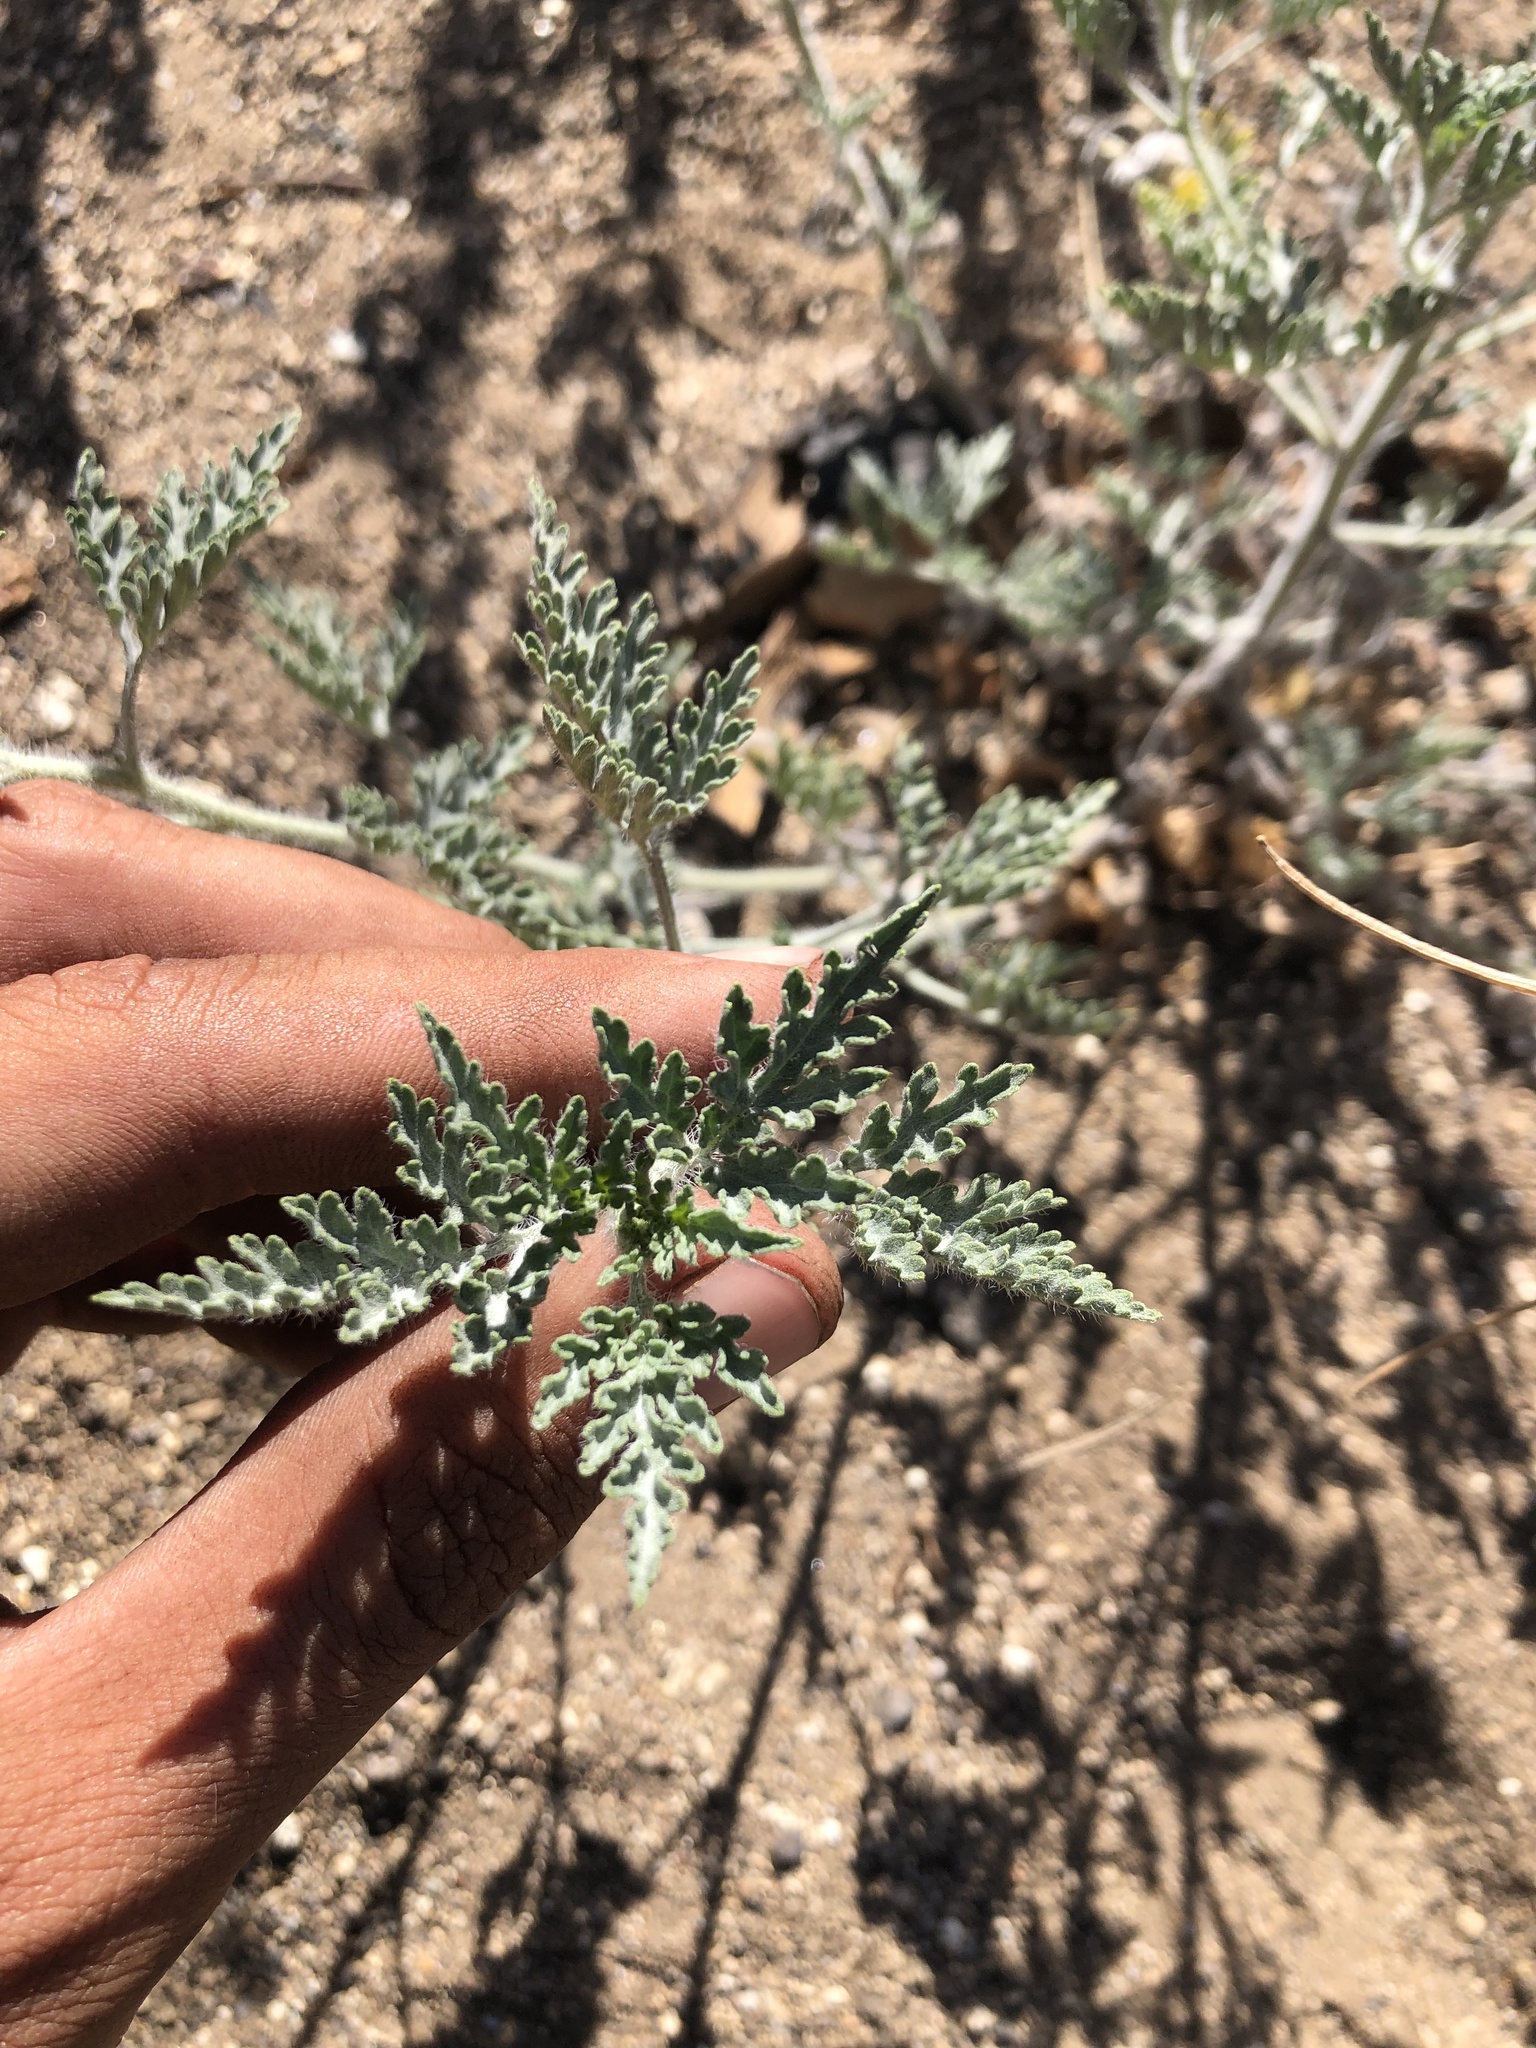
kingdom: Plantae
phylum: Tracheophyta
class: Magnoliopsida
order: Asterales
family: Asteraceae
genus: Ambrosia
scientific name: Ambrosia acanthicarpa
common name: Hooker's bur ragweed
